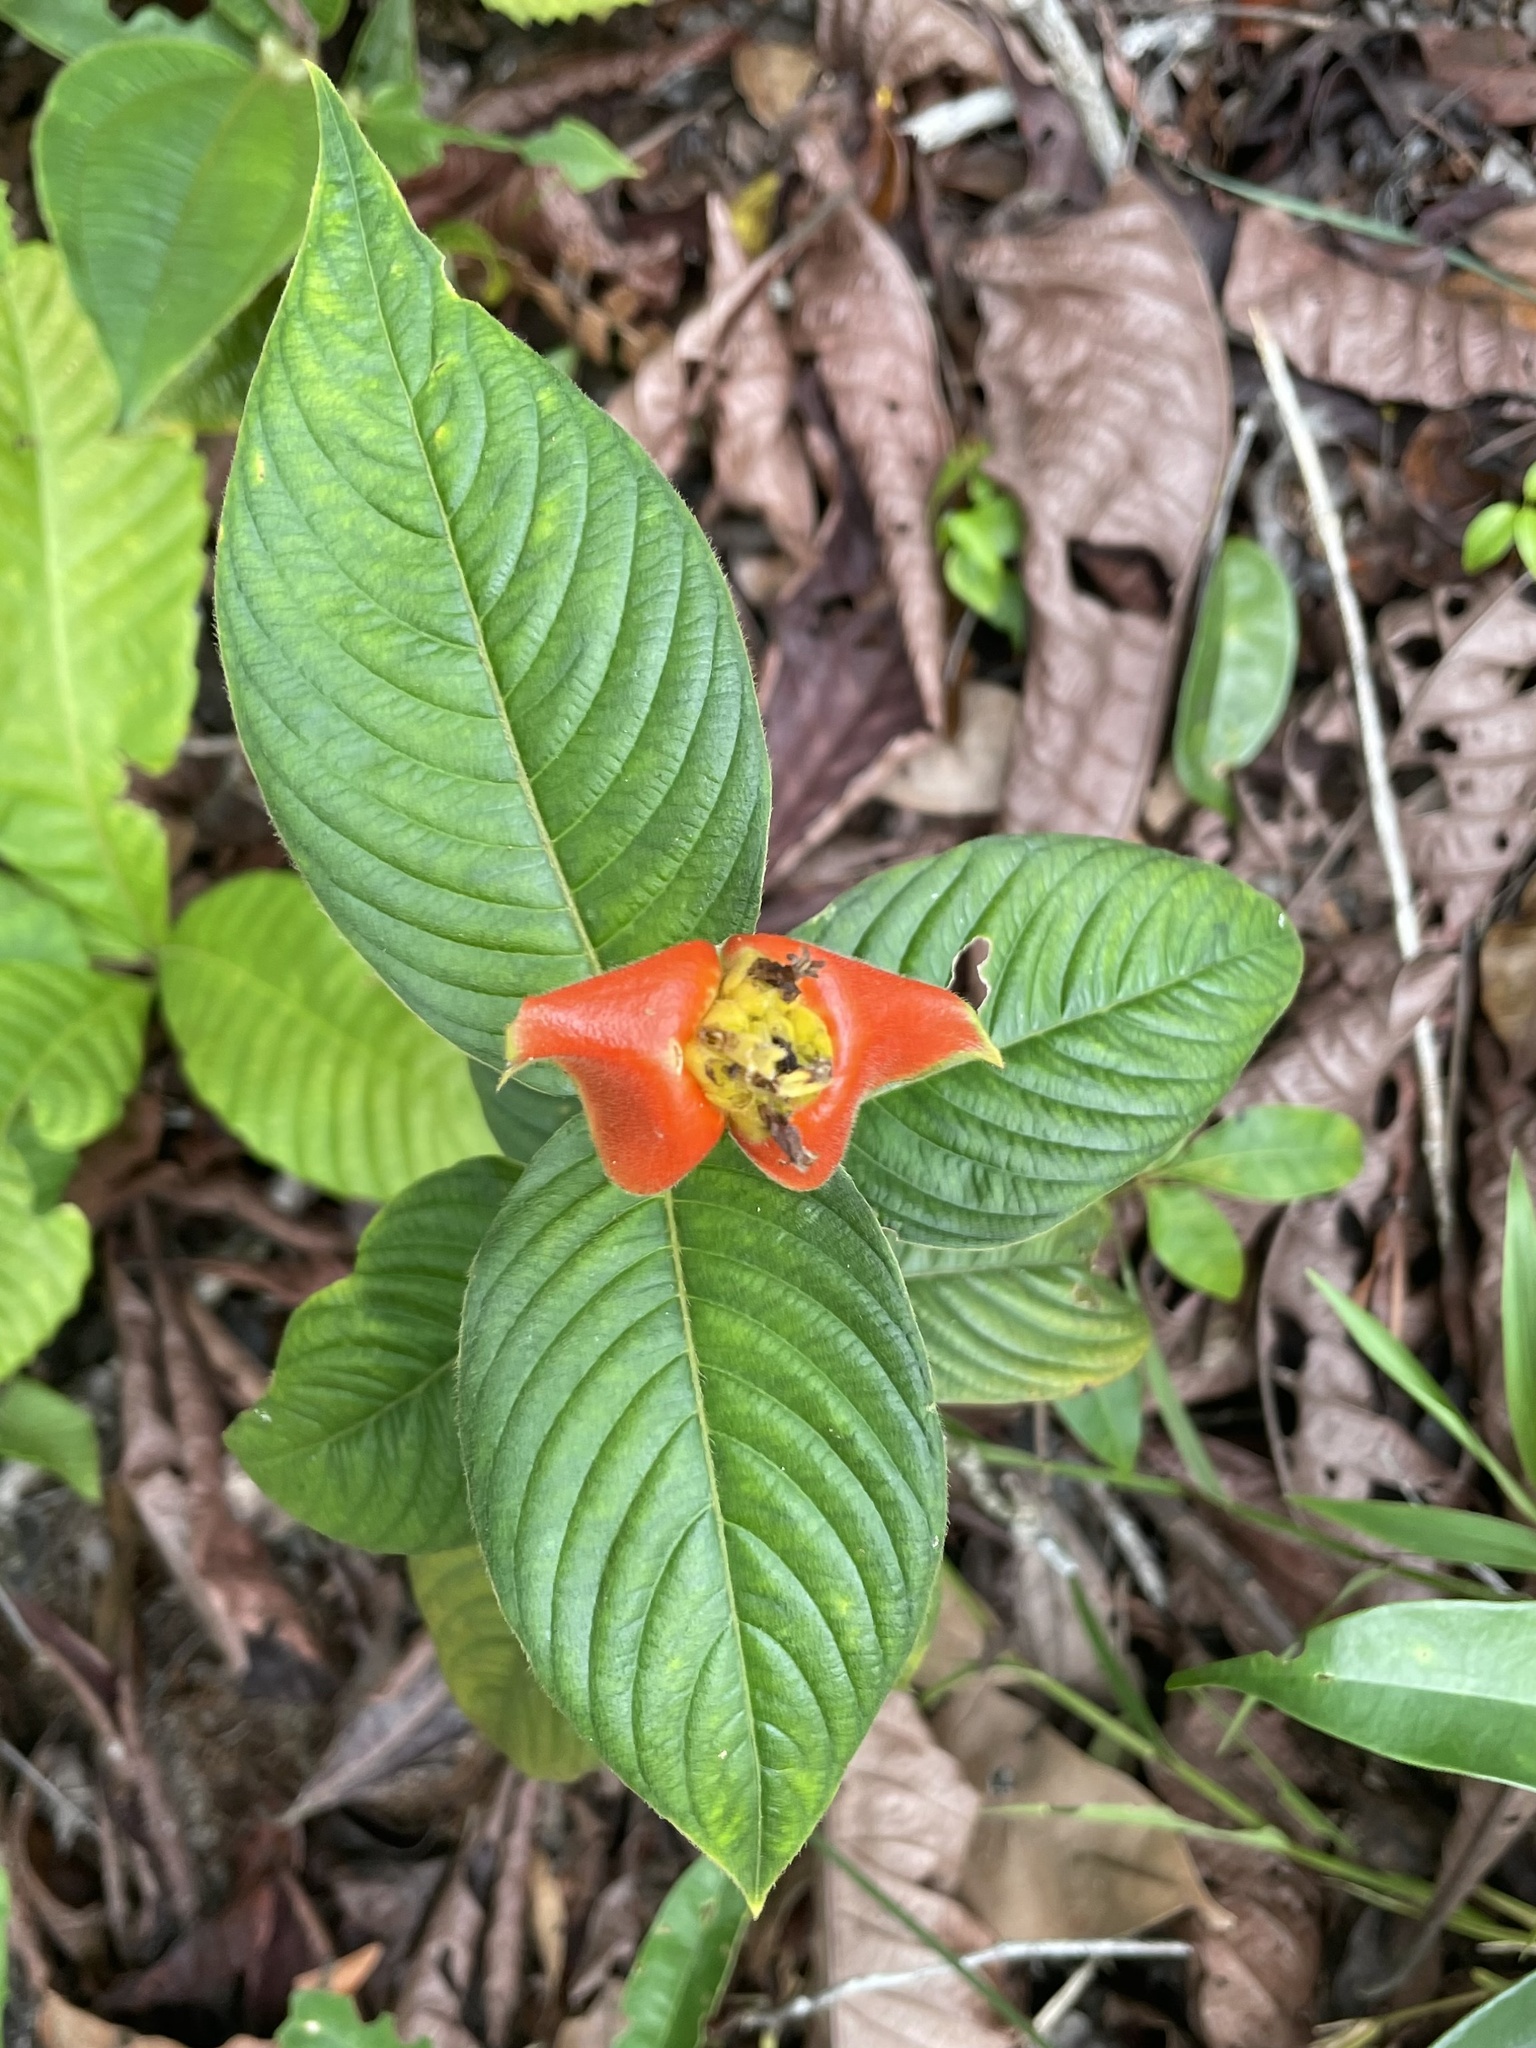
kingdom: Plantae
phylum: Tracheophyta
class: Magnoliopsida
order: Gentianales
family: Rubiaceae
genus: Palicourea
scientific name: Palicourea tomentosa
